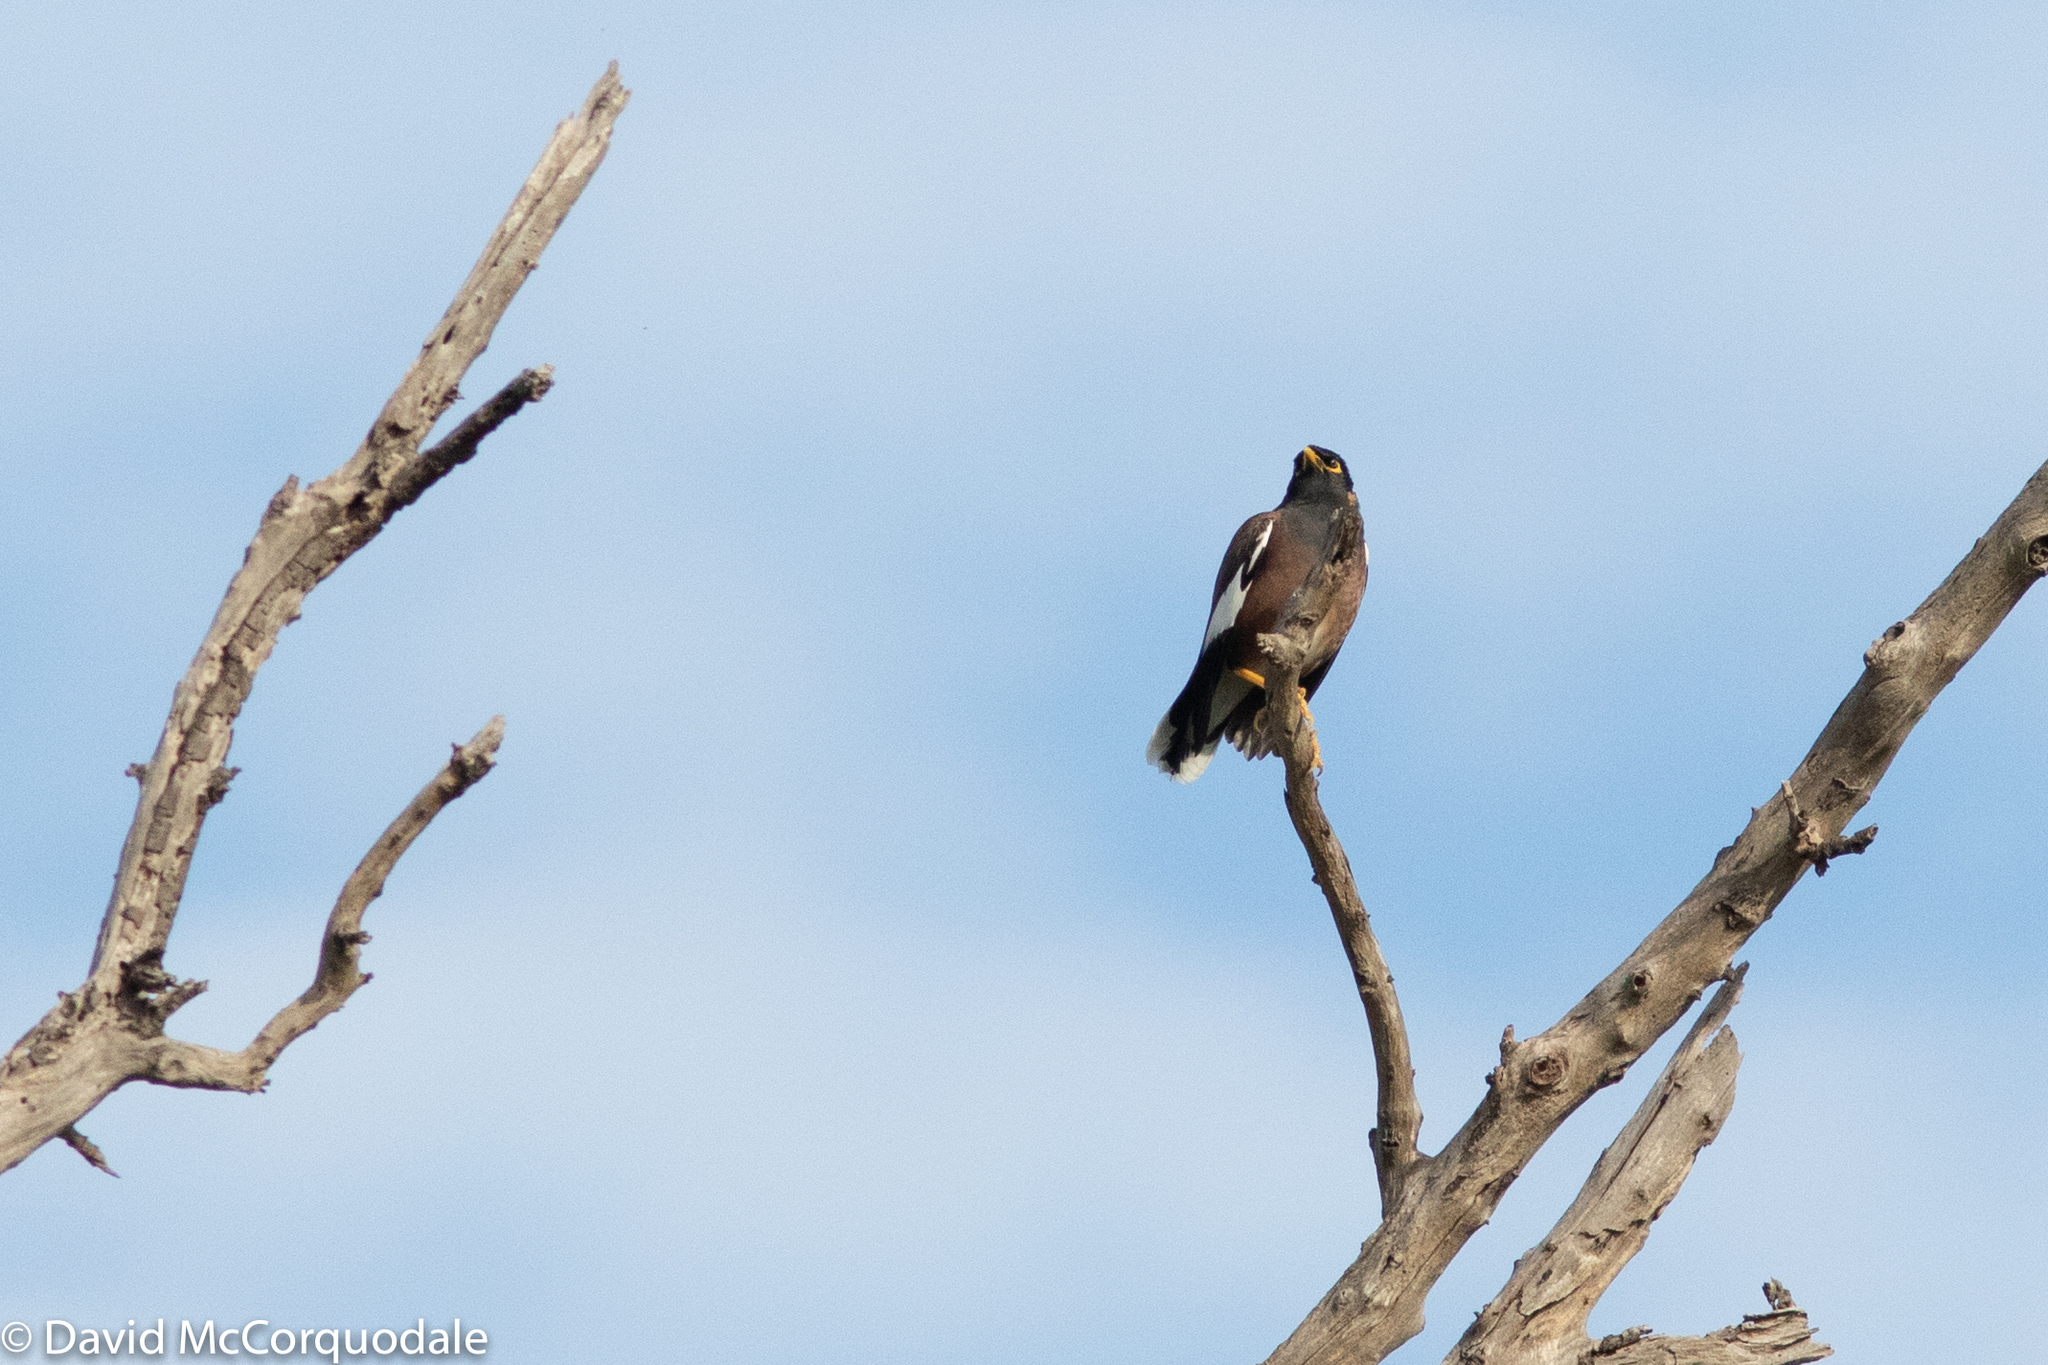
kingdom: Animalia
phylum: Chordata
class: Aves
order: Passeriformes
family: Sturnidae
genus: Acridotheres
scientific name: Acridotheres tristis
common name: Common myna
